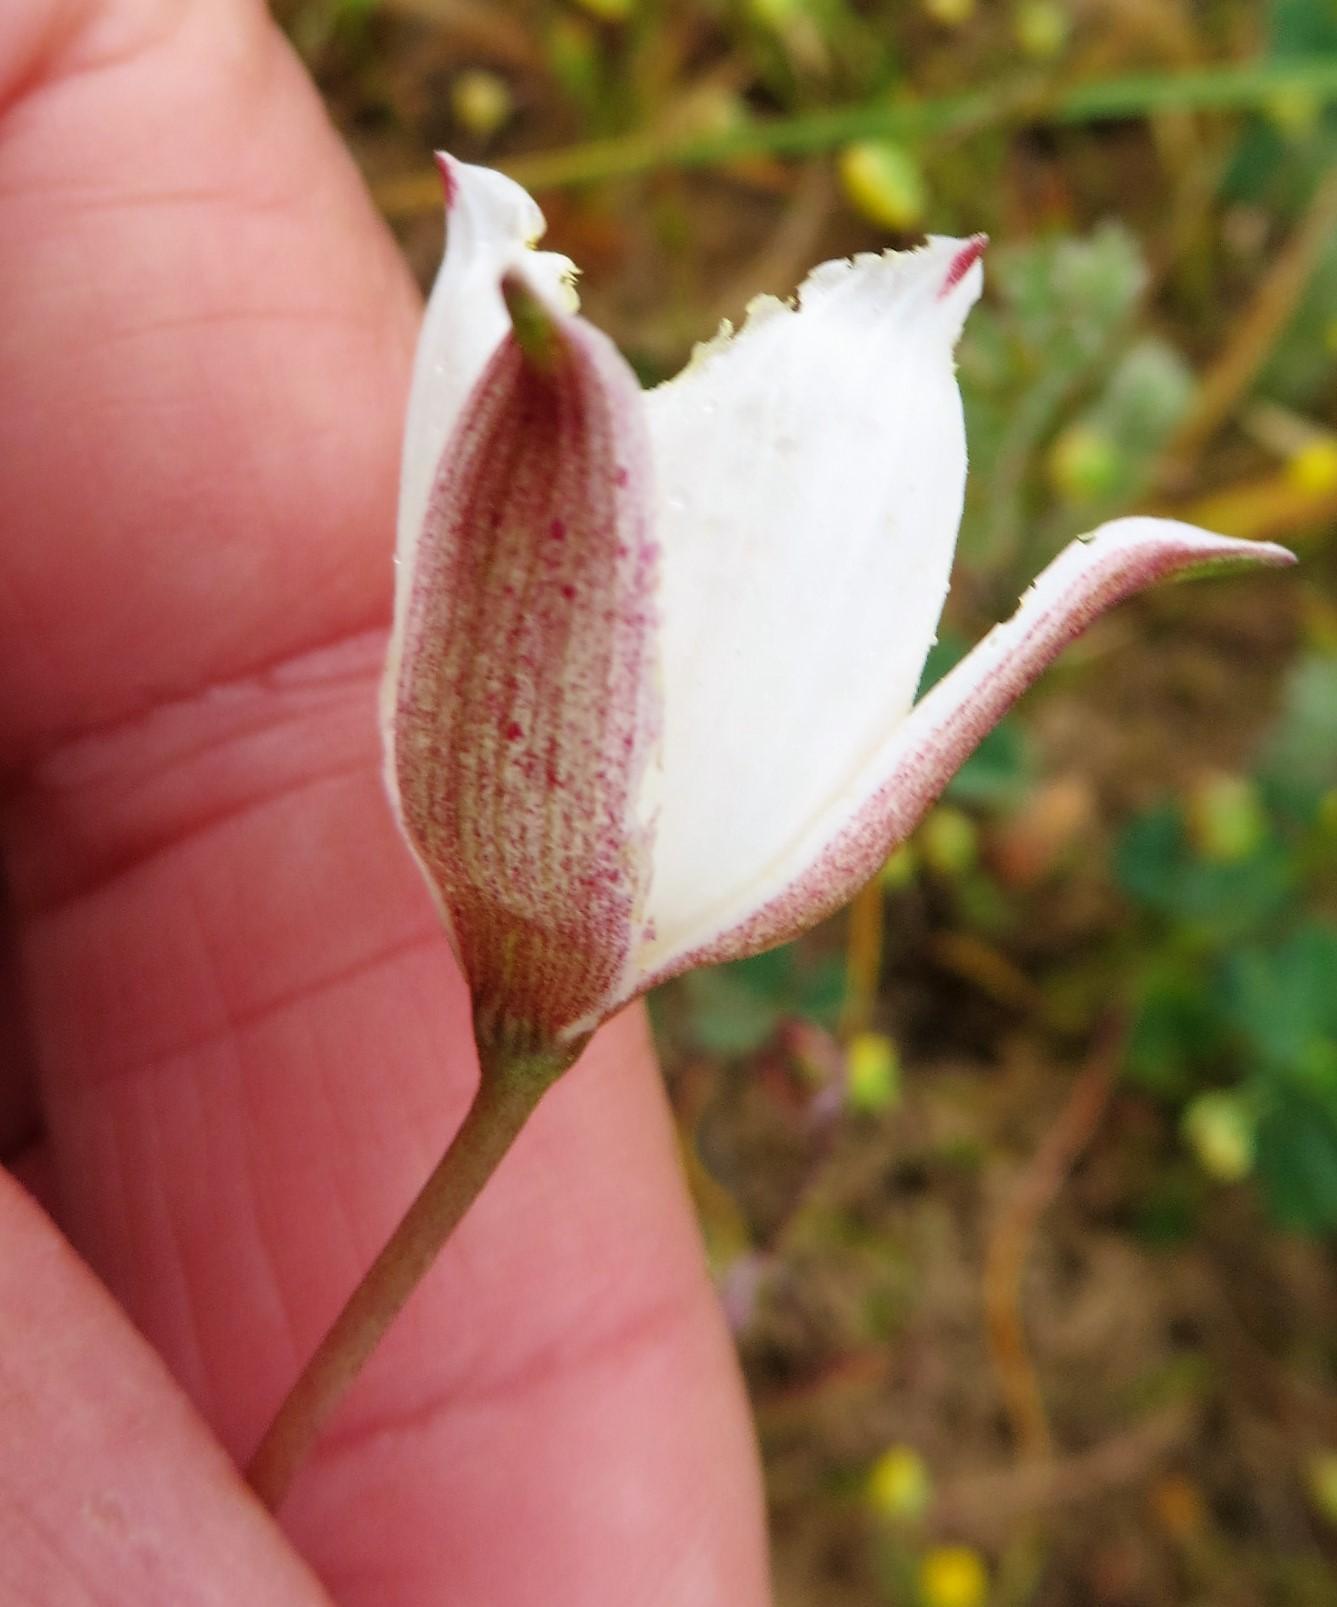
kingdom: Plantae
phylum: Tracheophyta
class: Liliopsida
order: Asparagales
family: Tecophilaeaceae
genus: Cyanella
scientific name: Cyanella alba
